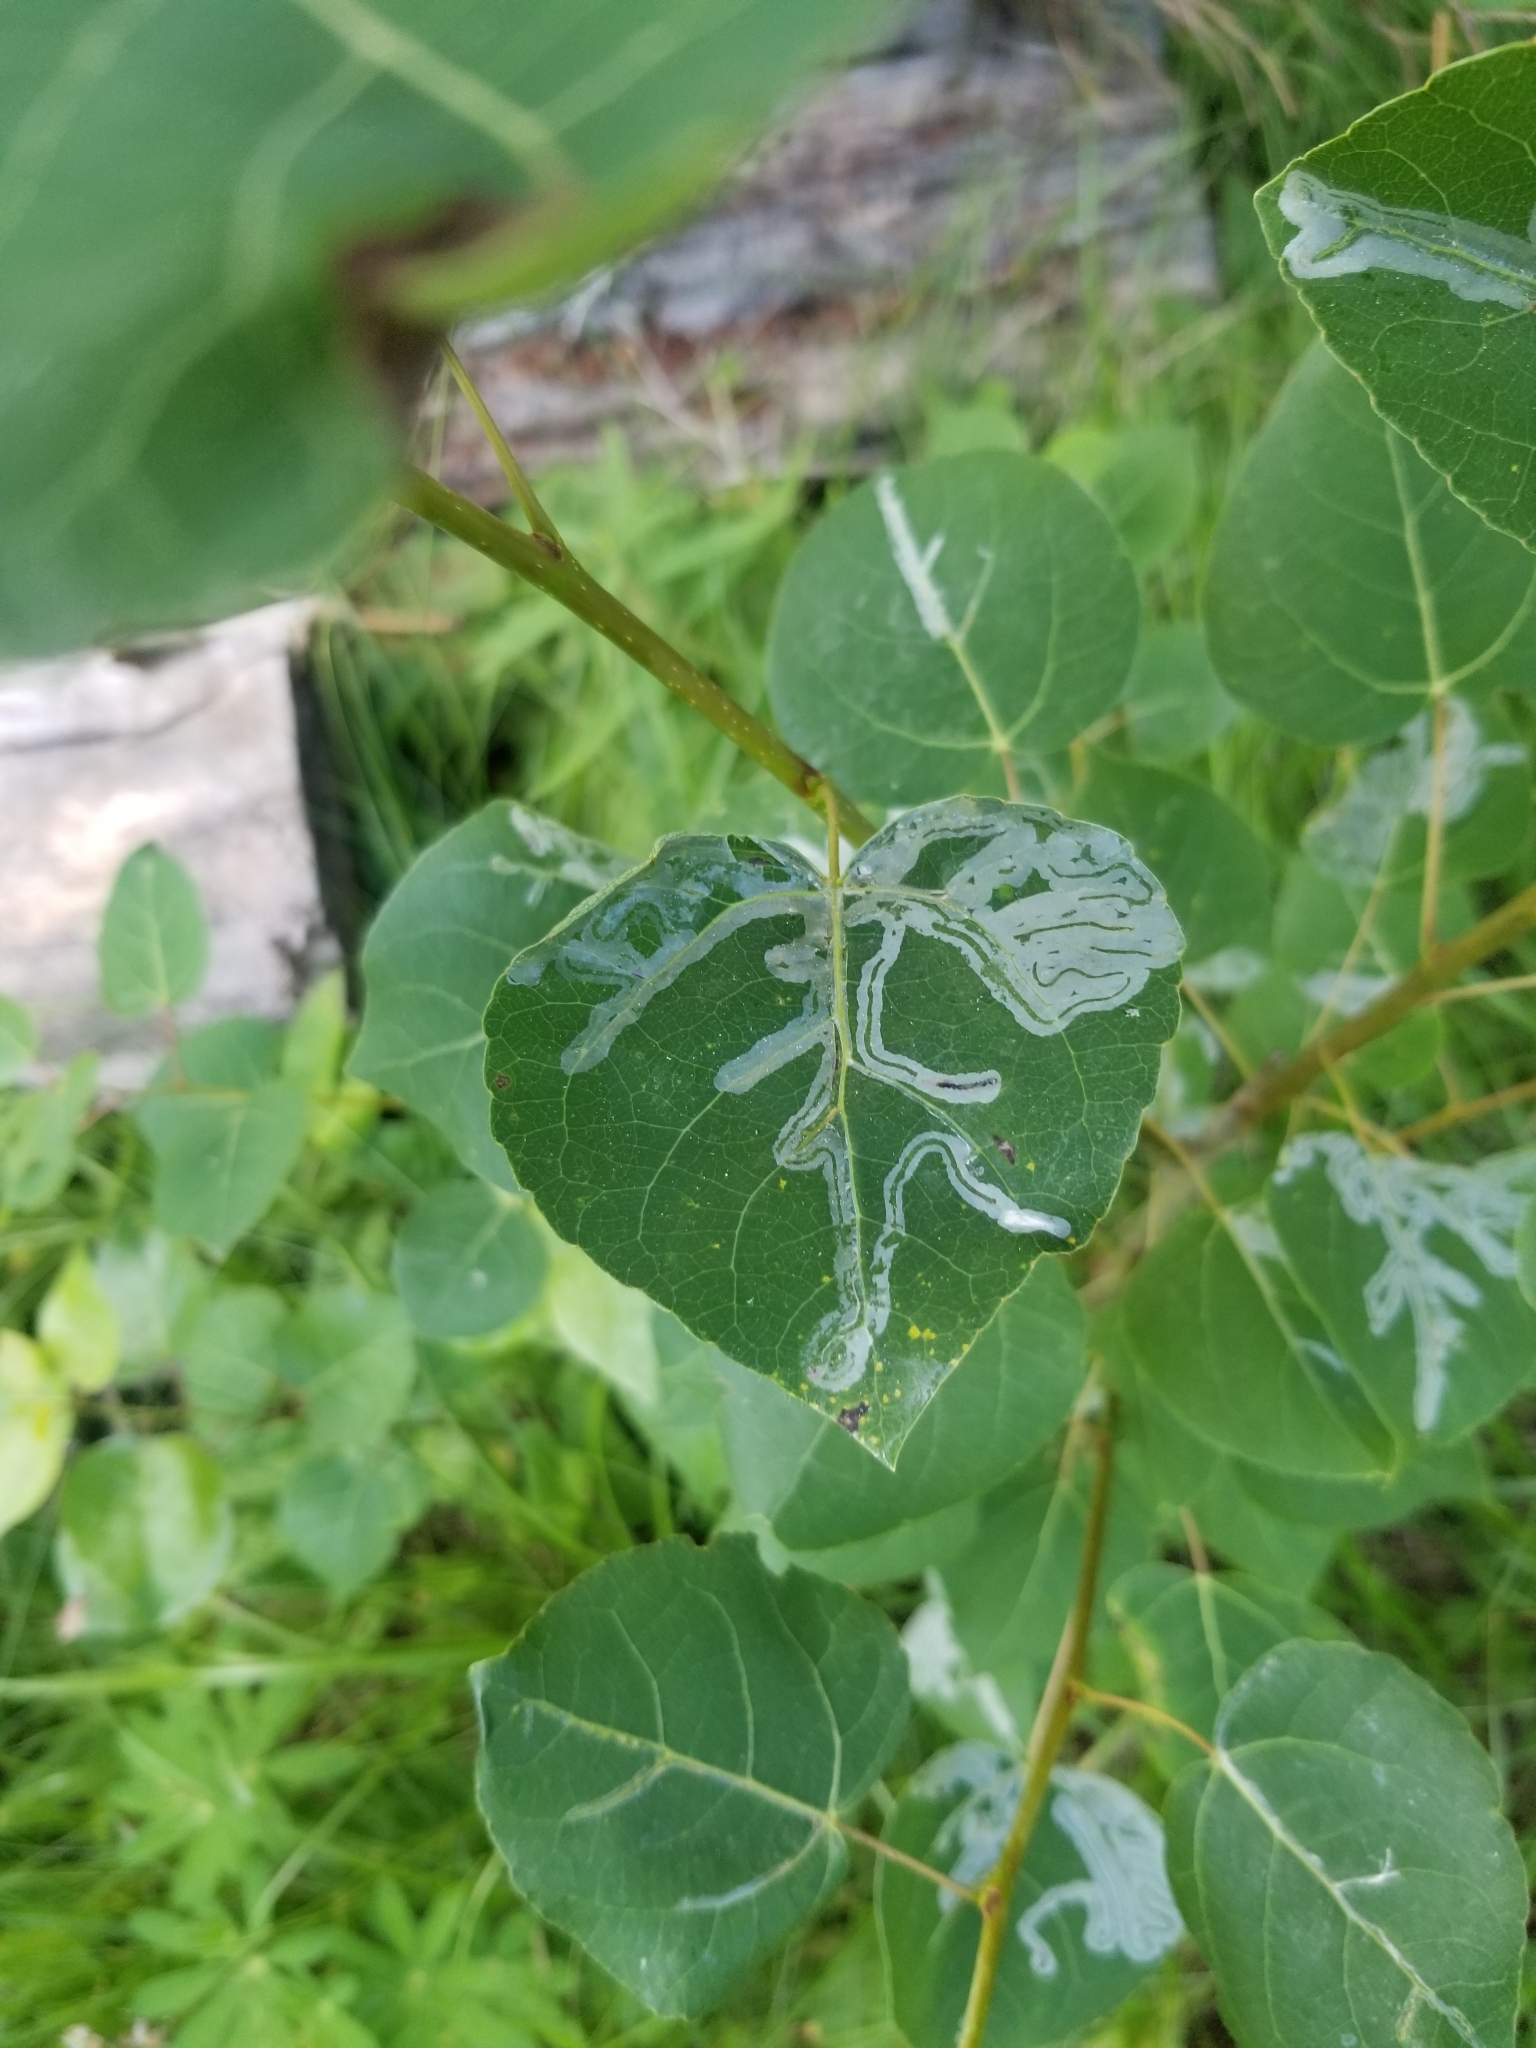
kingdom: Animalia
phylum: Arthropoda
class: Insecta
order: Lepidoptera
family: Gracillariidae
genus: Phyllocnistis
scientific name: Phyllocnistis populiella
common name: Aspen serpentine leafminer moth
